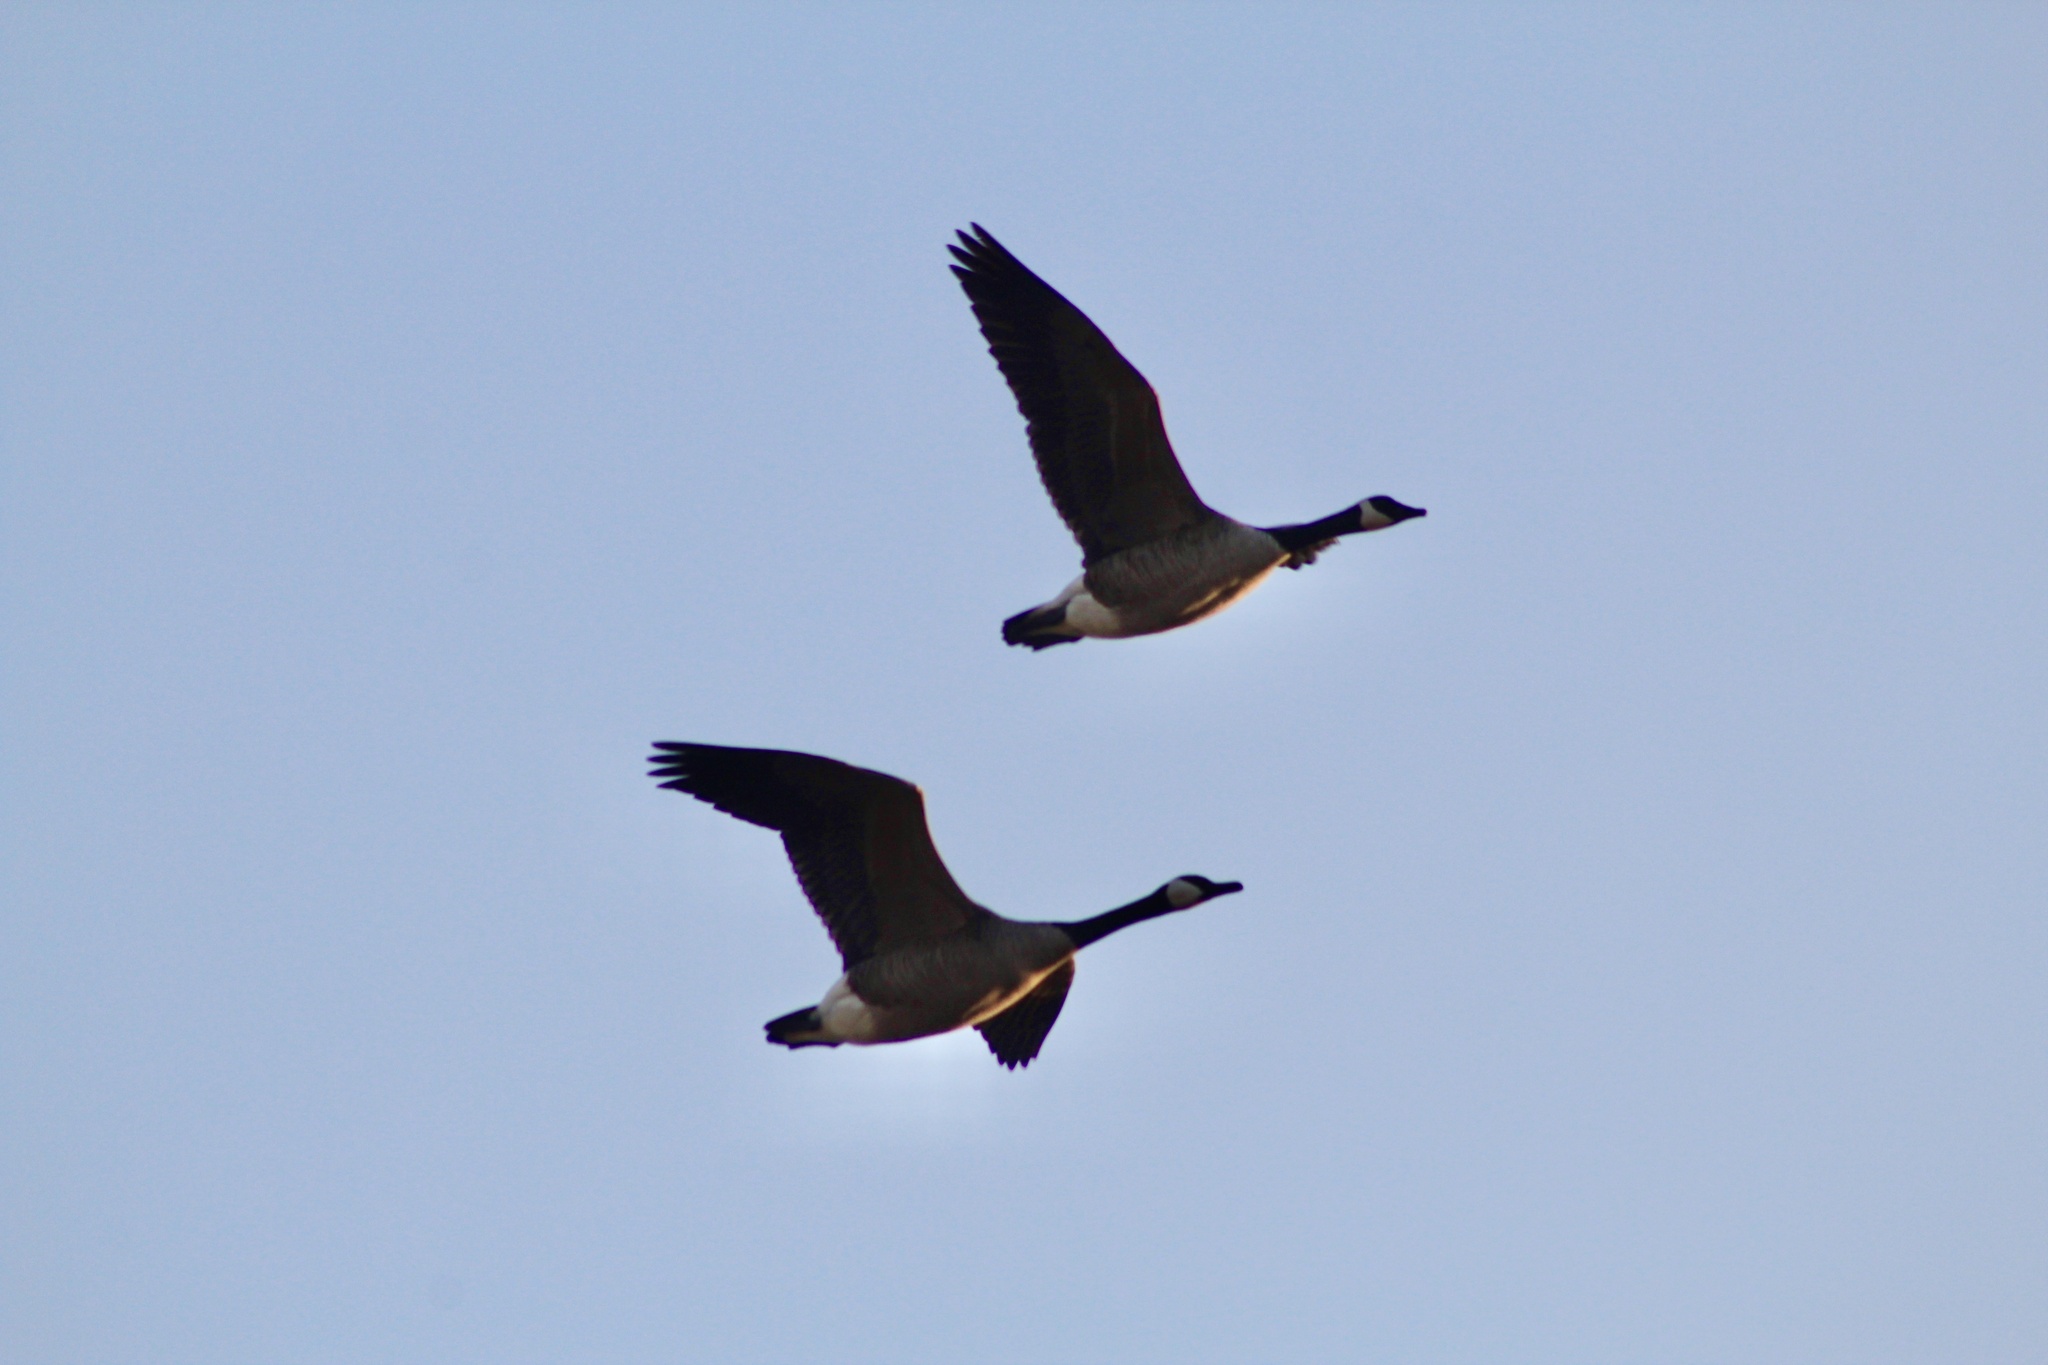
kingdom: Animalia
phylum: Chordata
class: Aves
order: Anseriformes
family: Anatidae
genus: Branta
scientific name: Branta canadensis
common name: Canada goose
